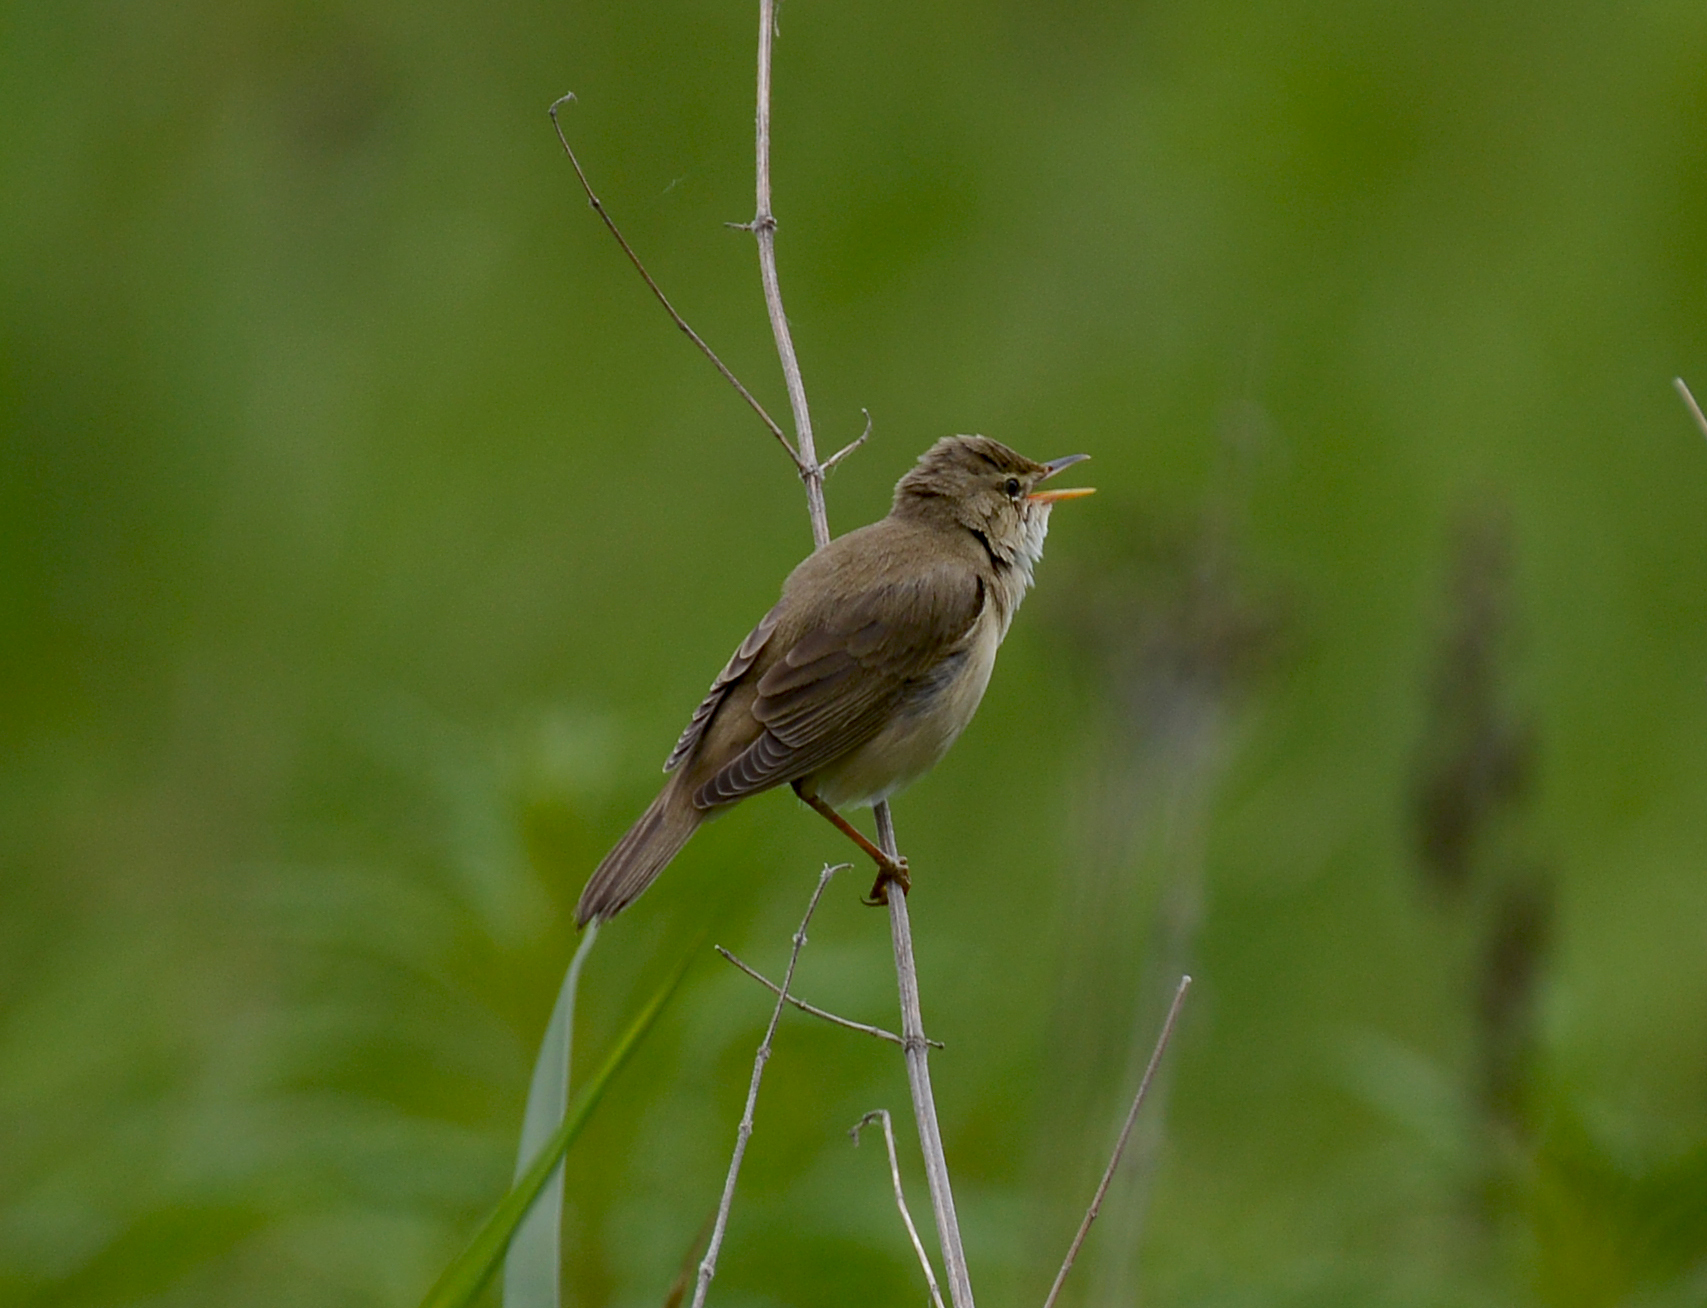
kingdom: Animalia
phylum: Chordata
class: Aves
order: Passeriformes
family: Acrocephalidae
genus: Acrocephalus
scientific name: Acrocephalus palustris
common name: Marsh warbler
